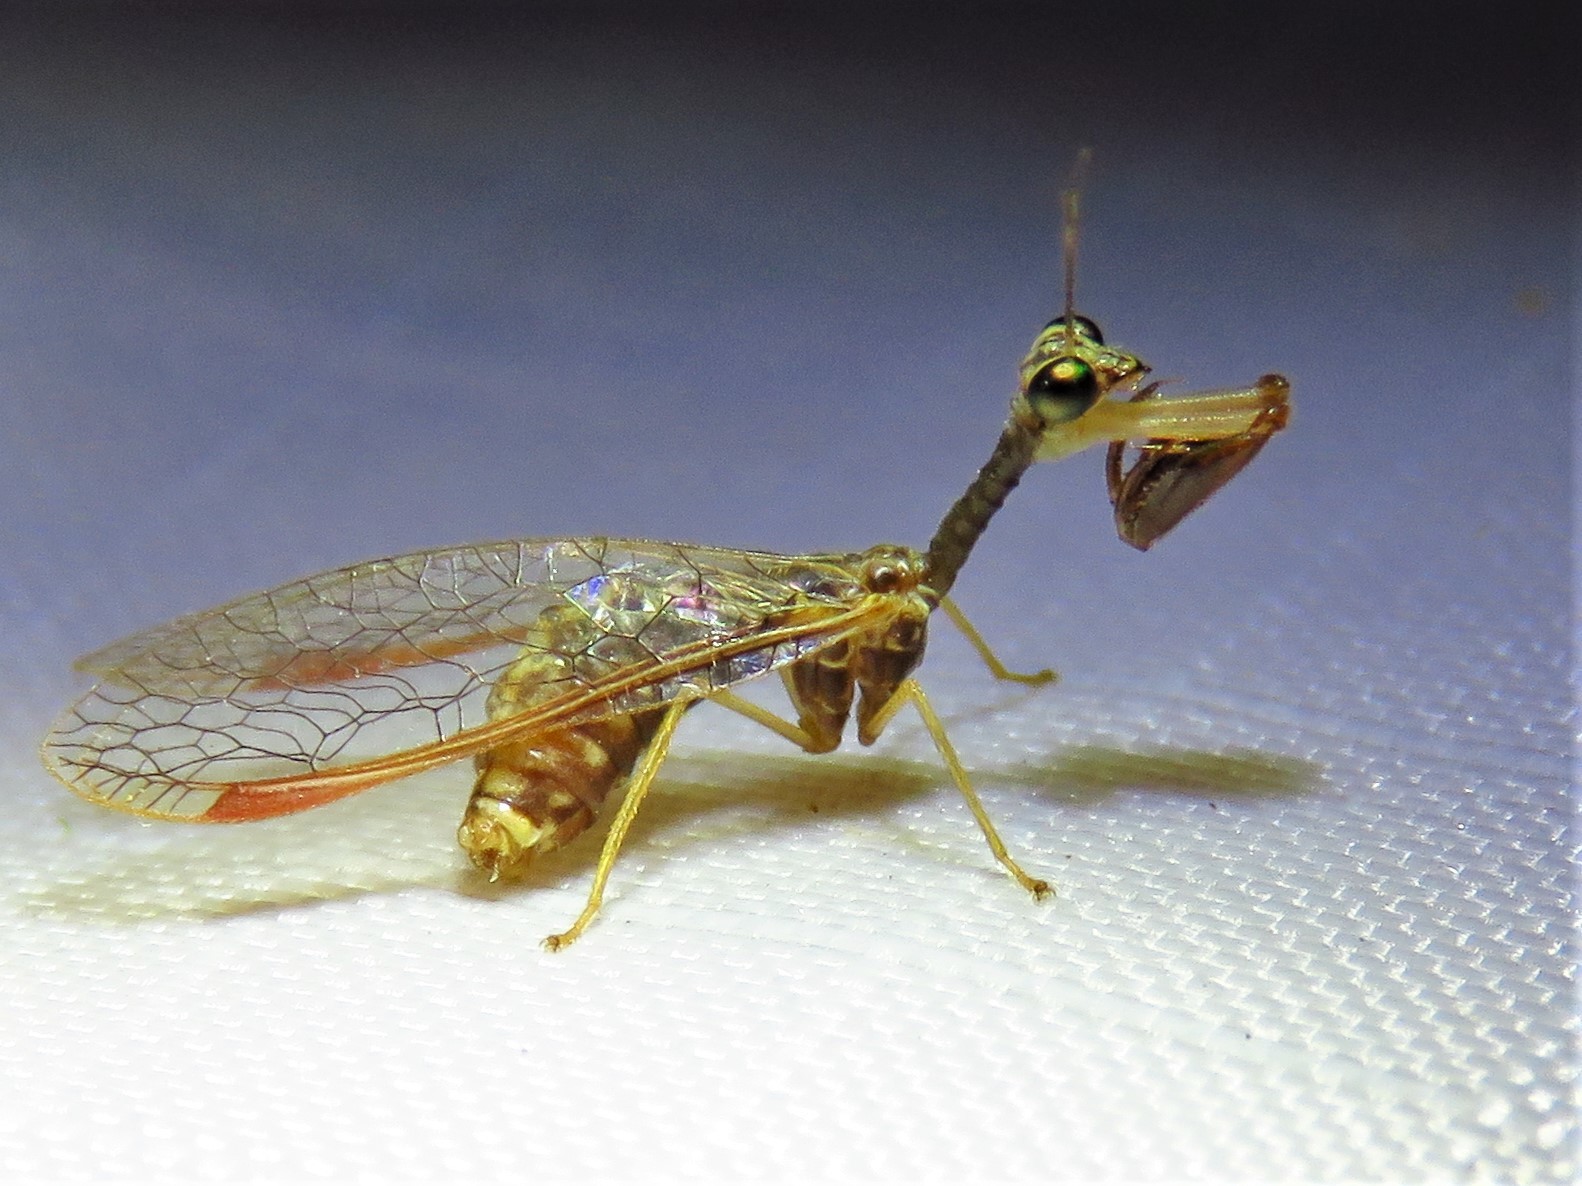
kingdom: Animalia
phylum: Arthropoda
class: Insecta
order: Neuroptera
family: Mantispidae
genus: Dicromantispa
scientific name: Dicromantispa sayi
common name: Say's mantidfly
